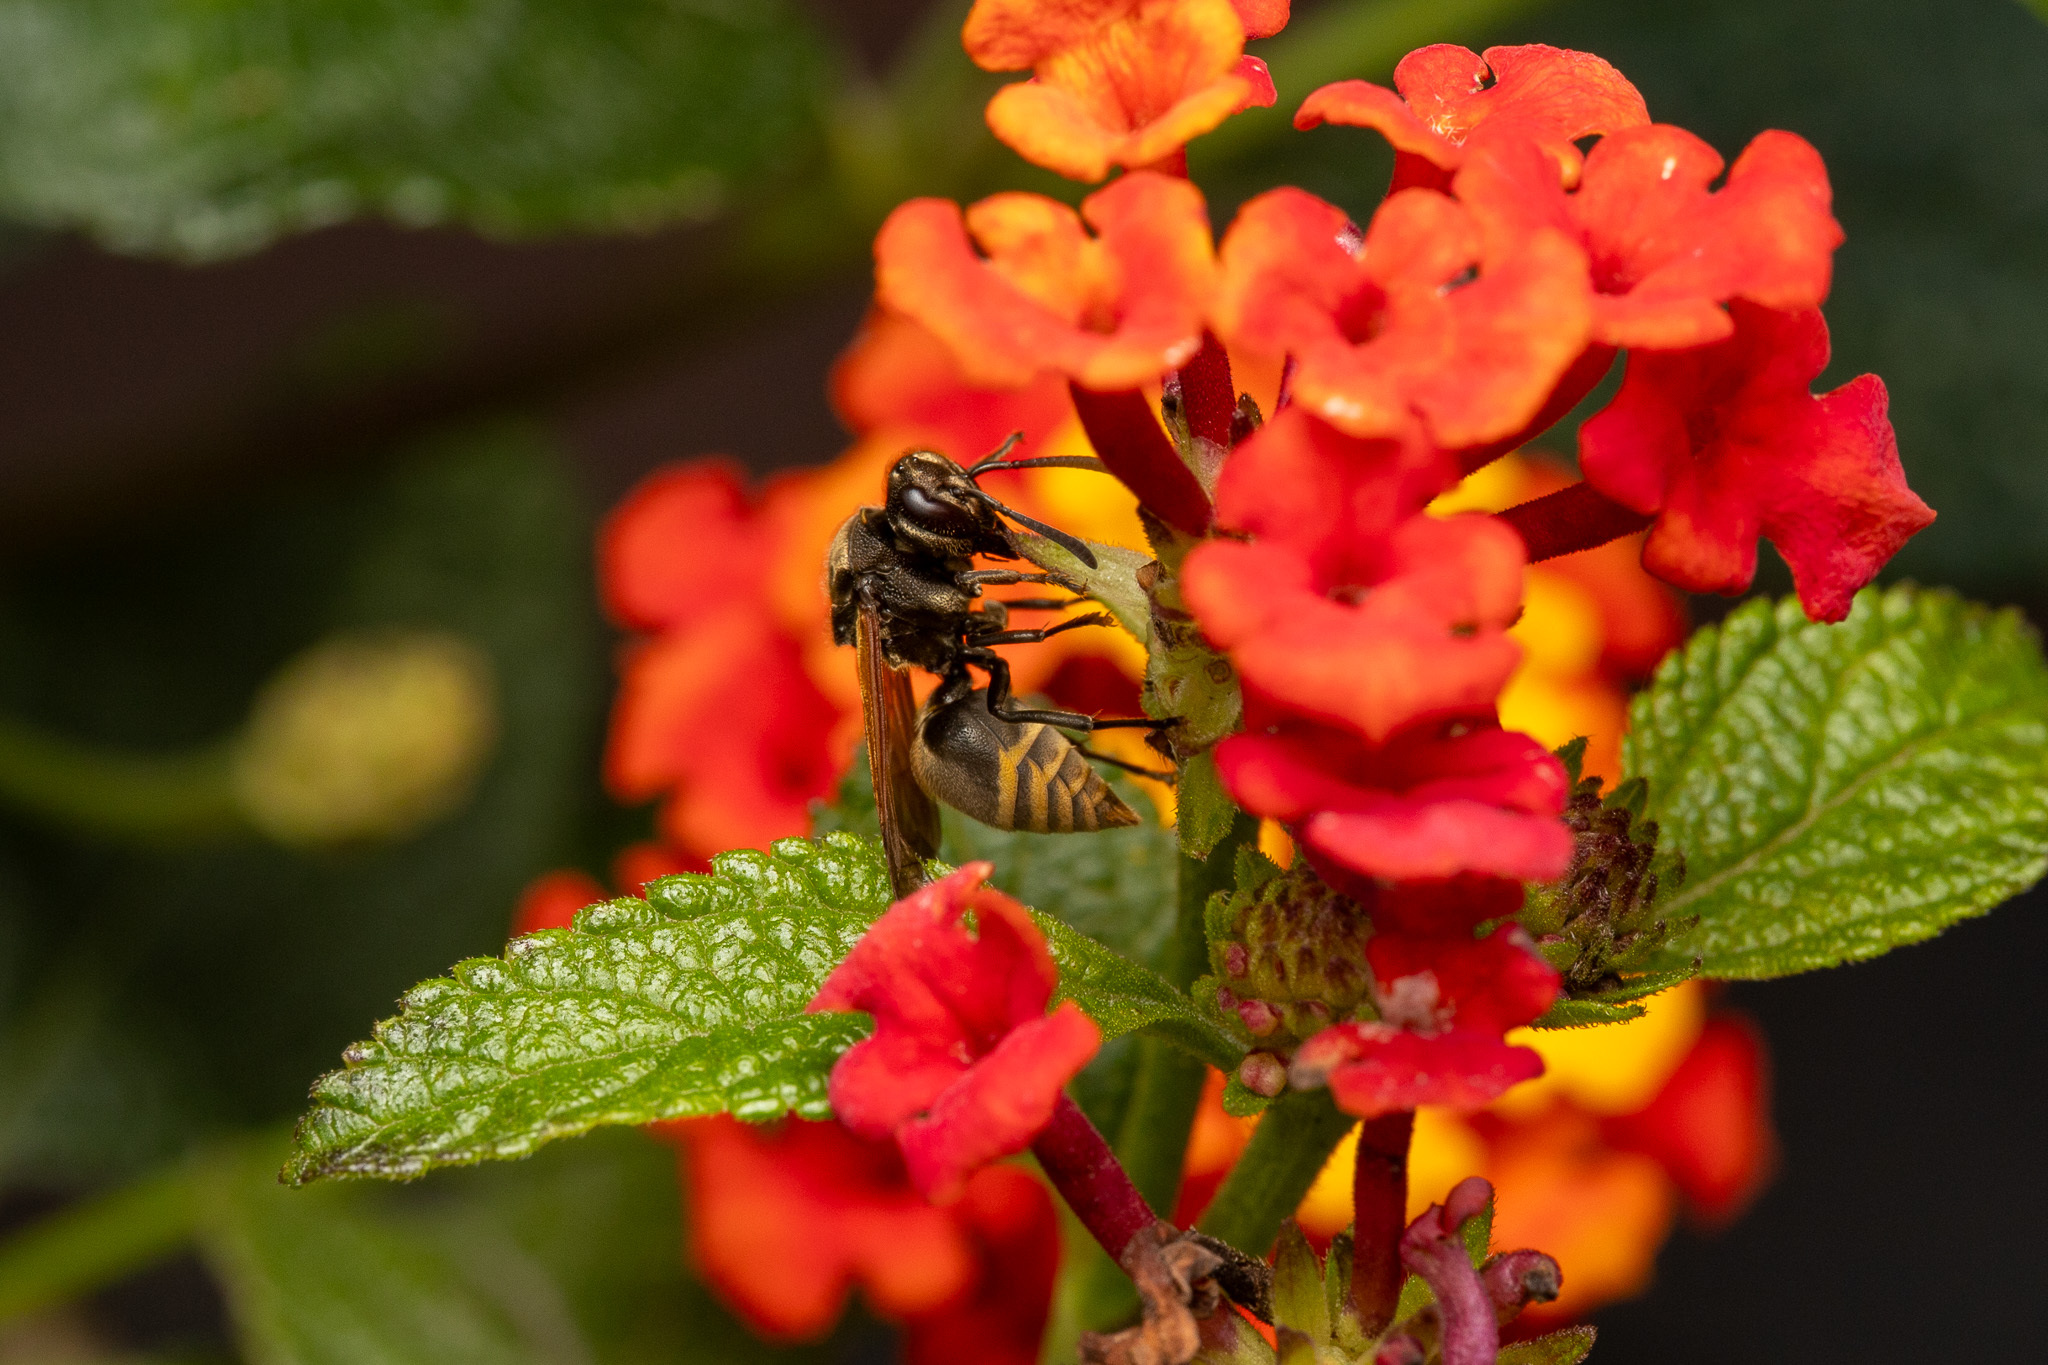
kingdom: Animalia
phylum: Arthropoda
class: Insecta
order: Hymenoptera
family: Vespidae
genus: Brachygastra
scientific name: Brachygastra mellifica
